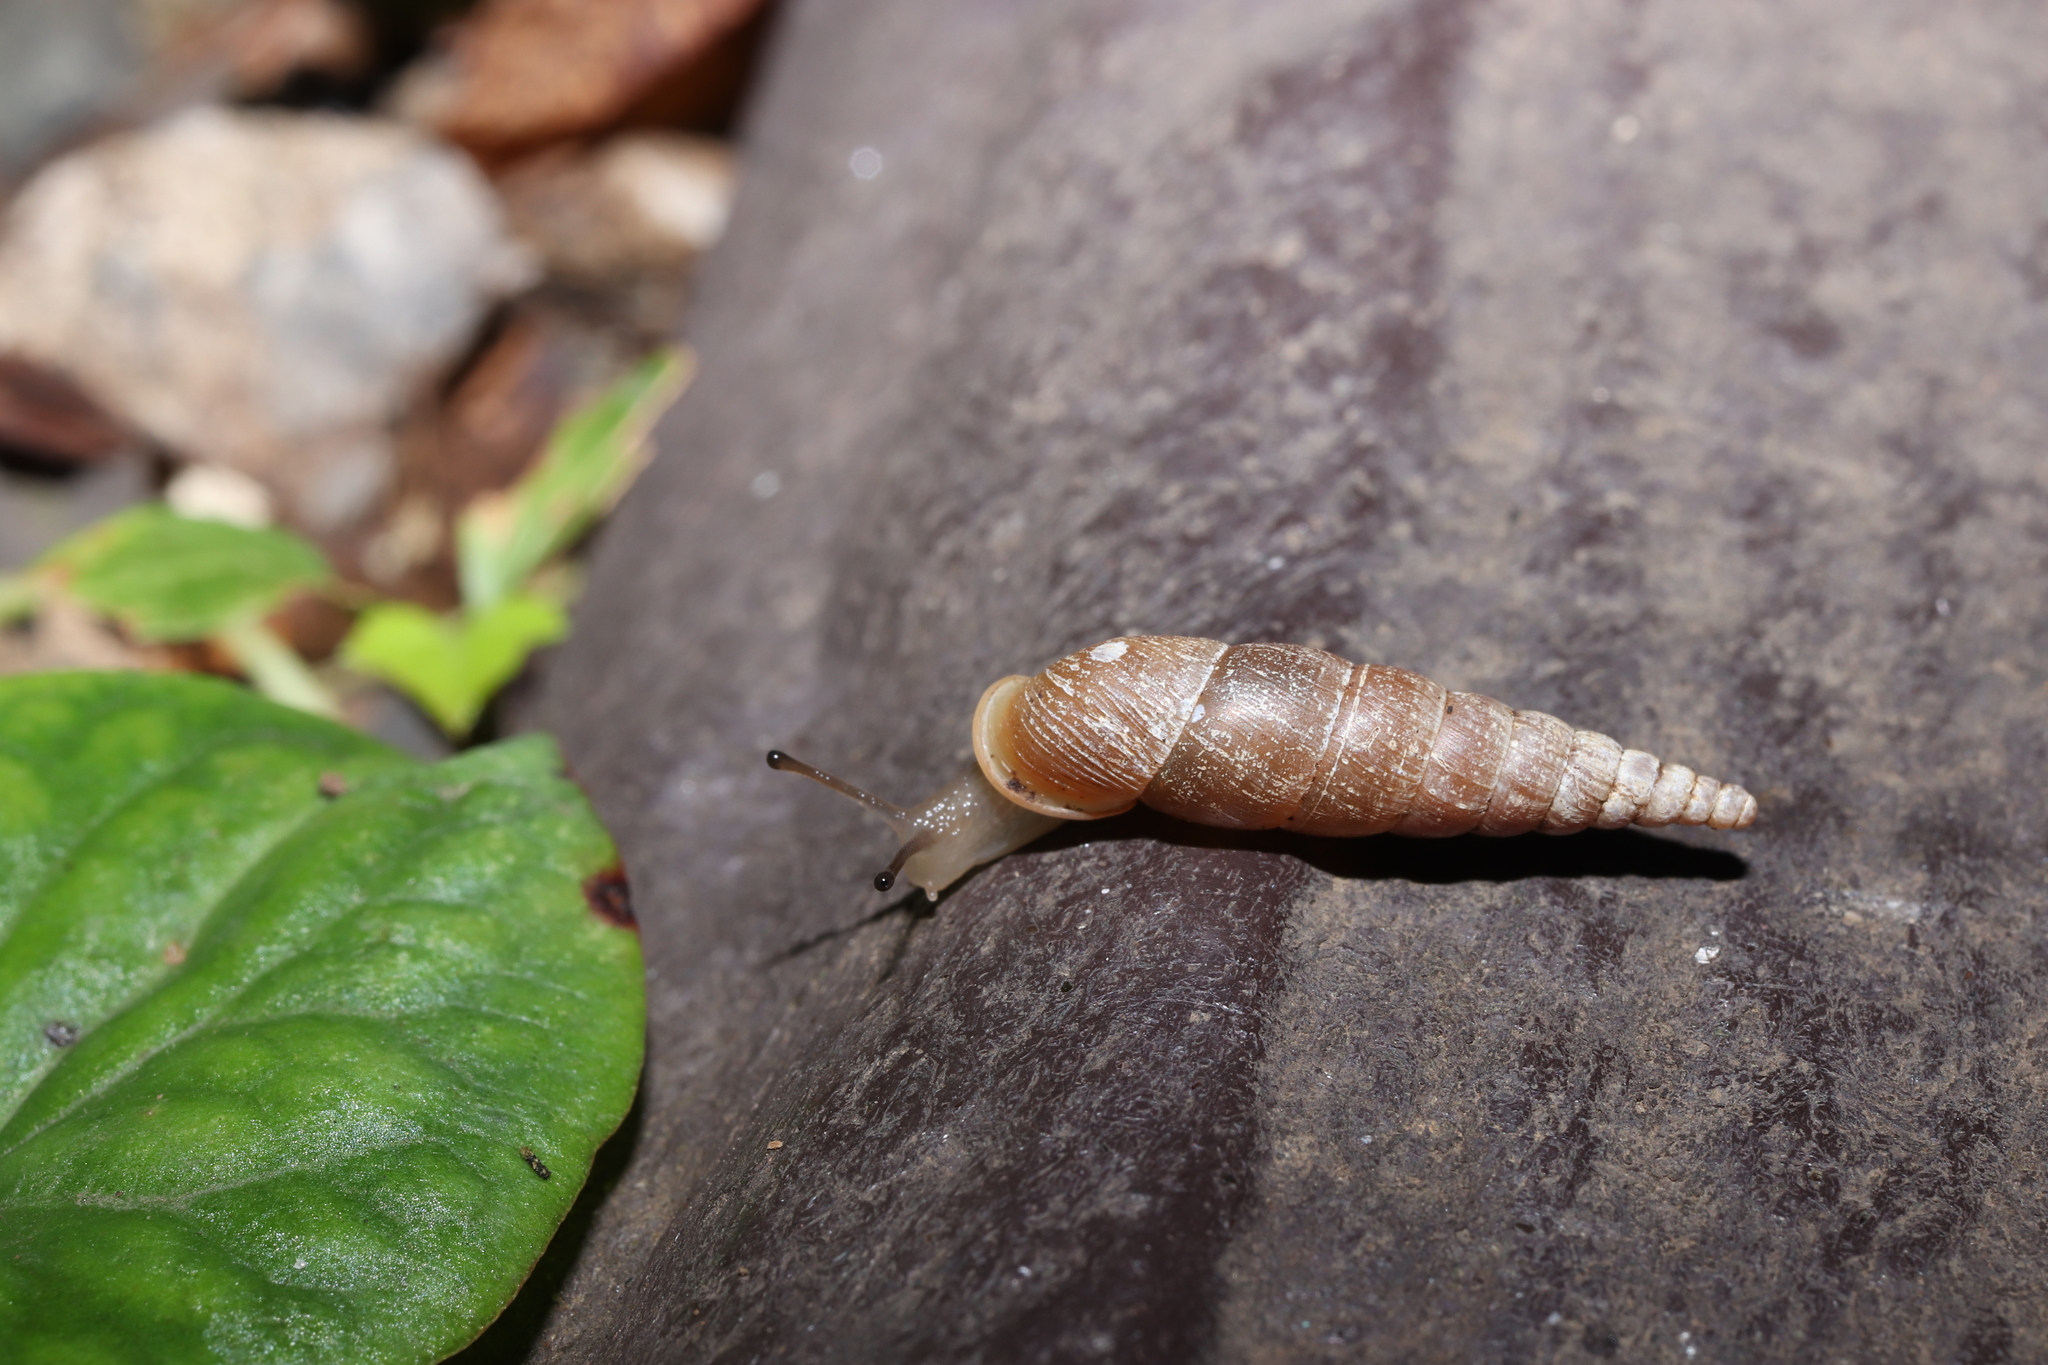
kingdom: Animalia
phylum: Mollusca
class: Gastropoda
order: Stylommatophora
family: Clausiliidae
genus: Stereophaedusa
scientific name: Stereophaedusa japonica
